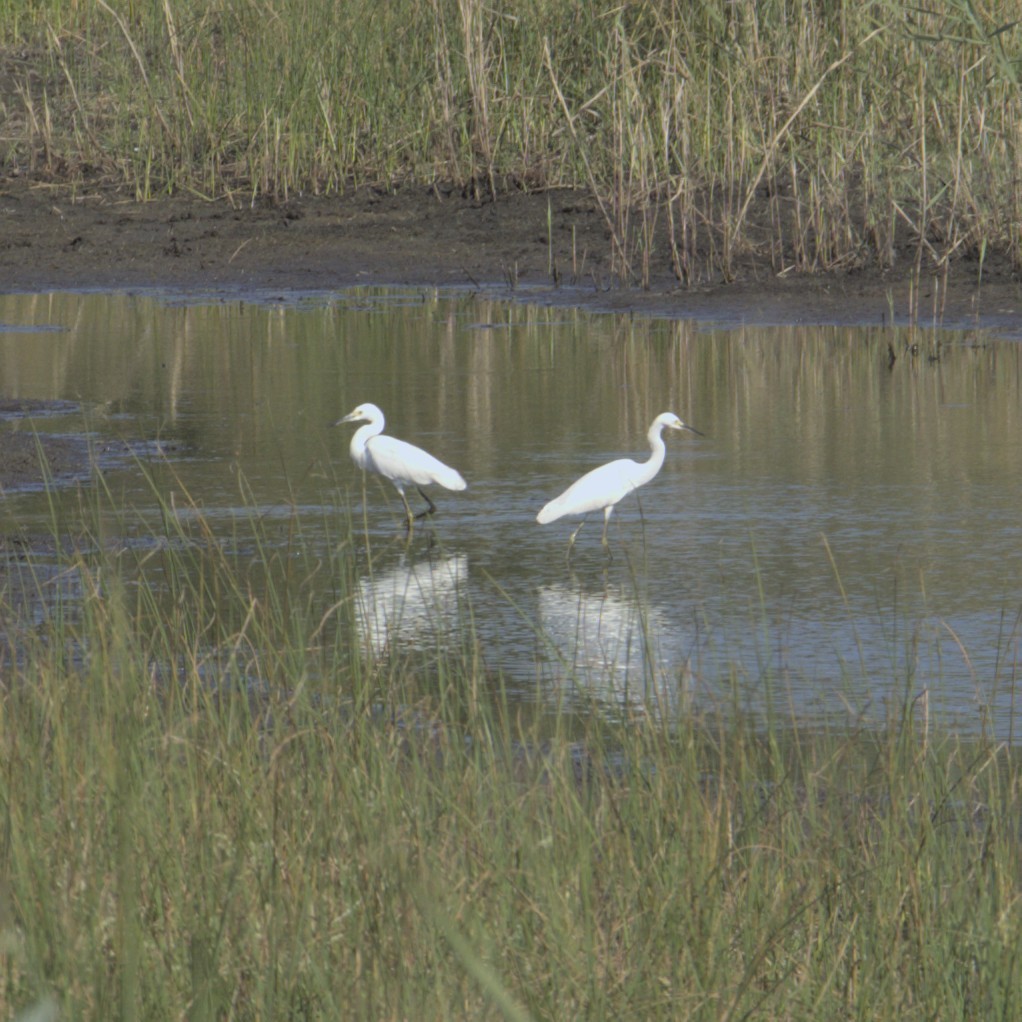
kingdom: Animalia
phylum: Chordata
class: Aves
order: Pelecaniformes
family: Ardeidae
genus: Egretta
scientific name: Egretta thula
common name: Snowy egret
